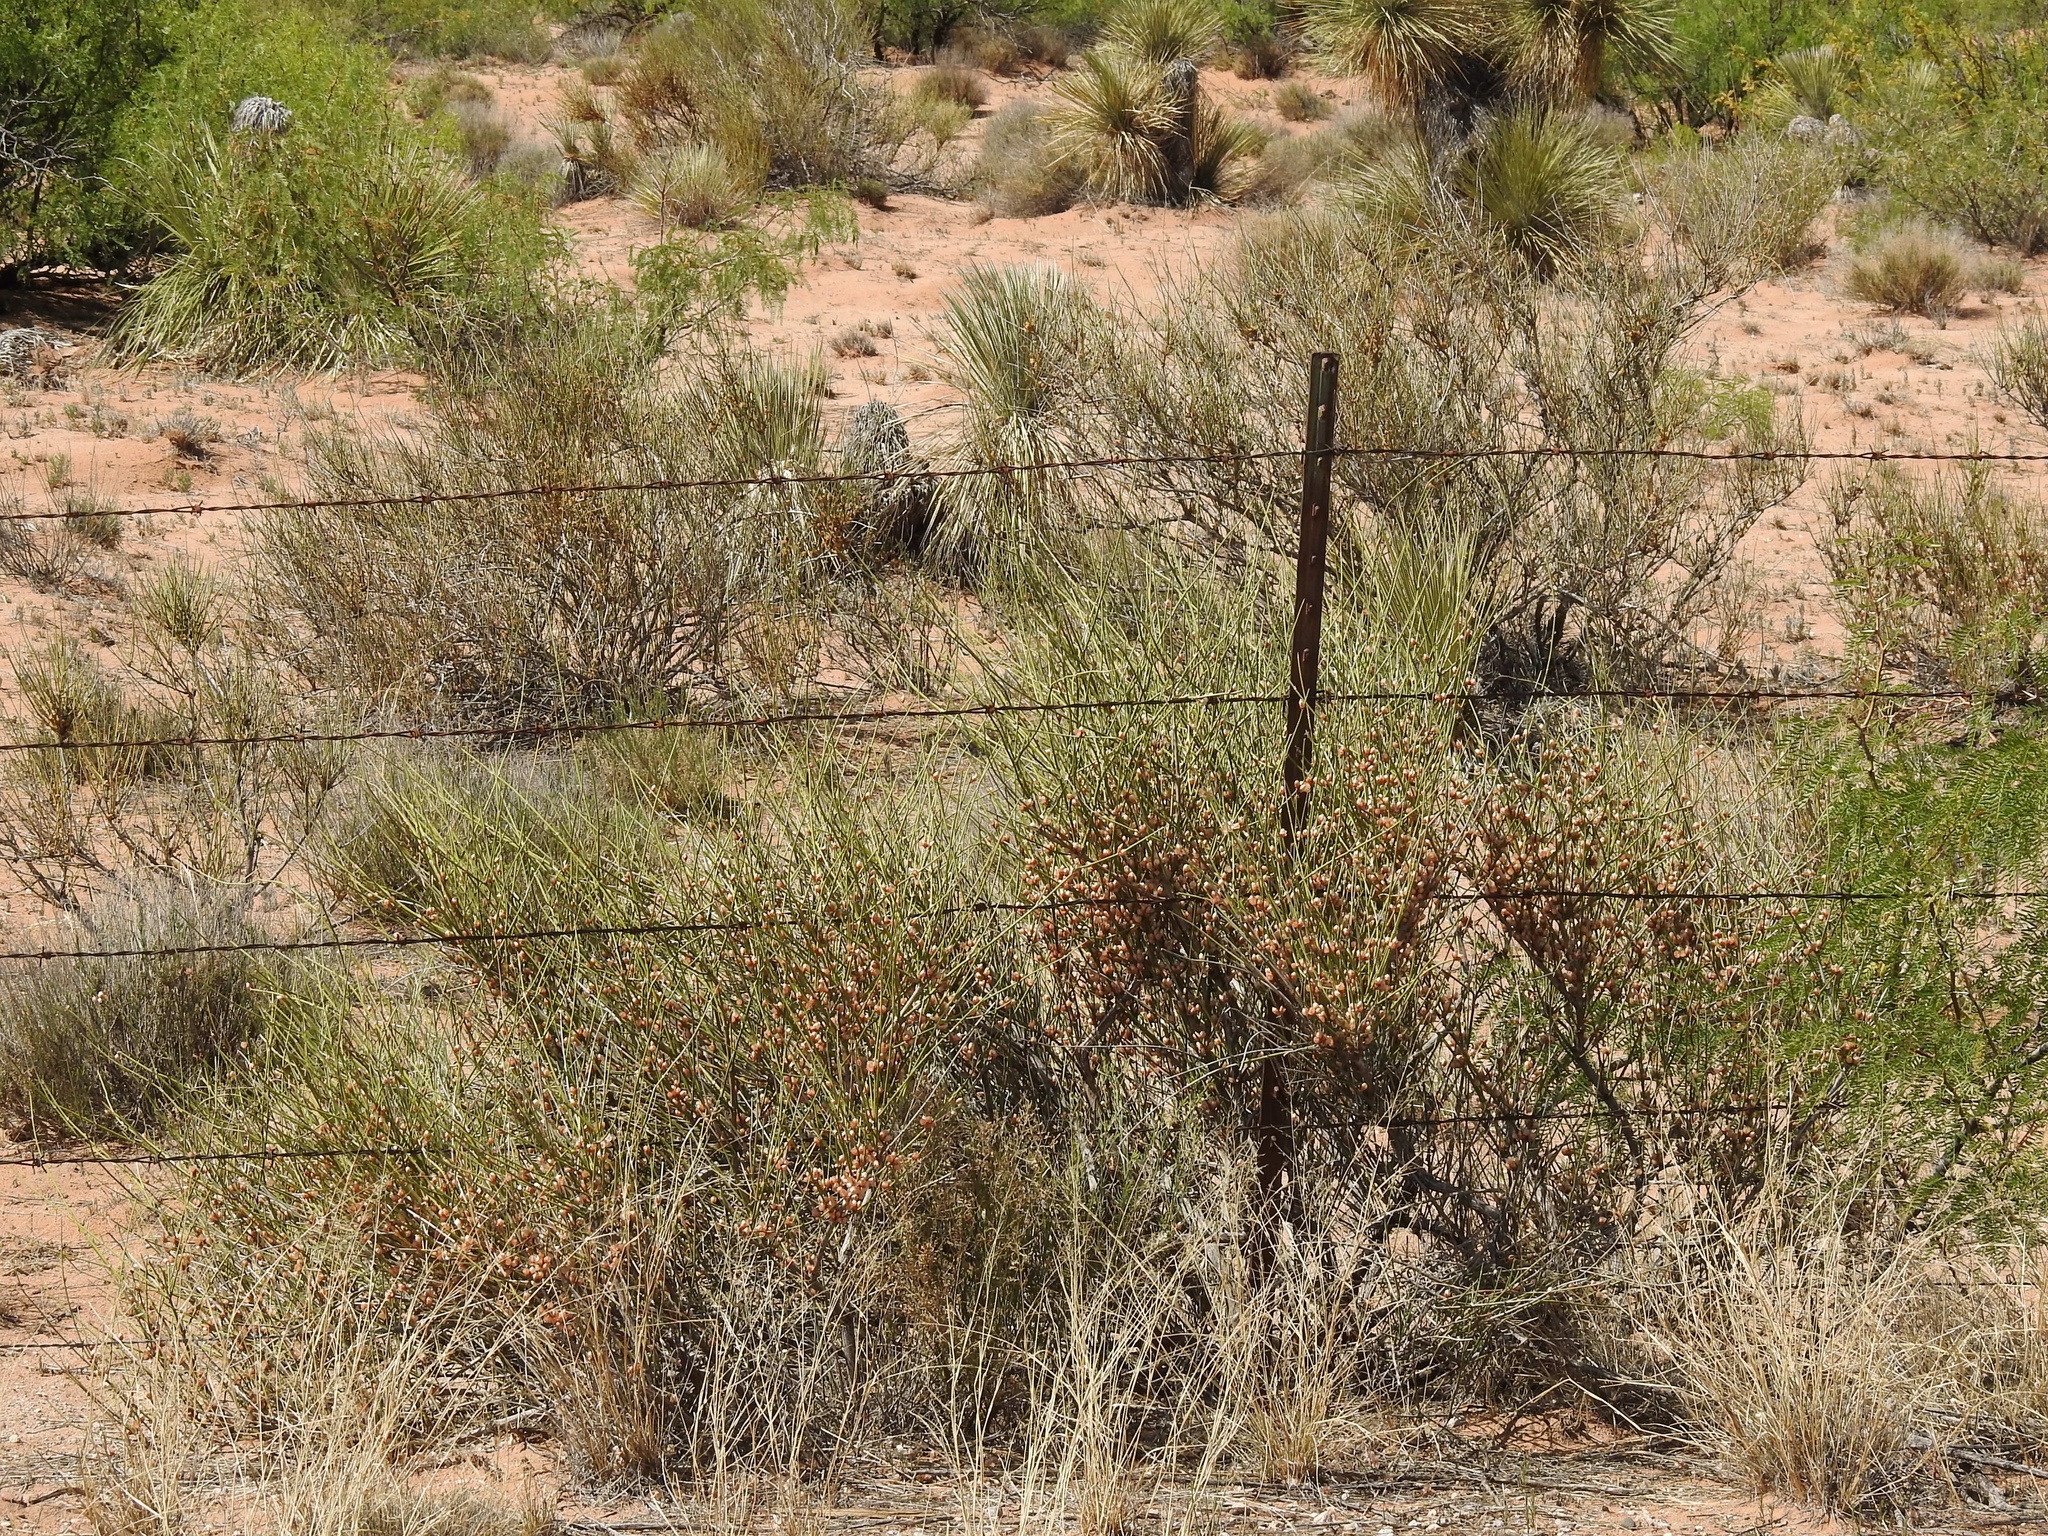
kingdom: Plantae
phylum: Tracheophyta
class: Gnetopsida
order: Ephedrales
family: Ephedraceae
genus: Ephedra
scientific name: Ephedra trifurca
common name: Mexican-tea
